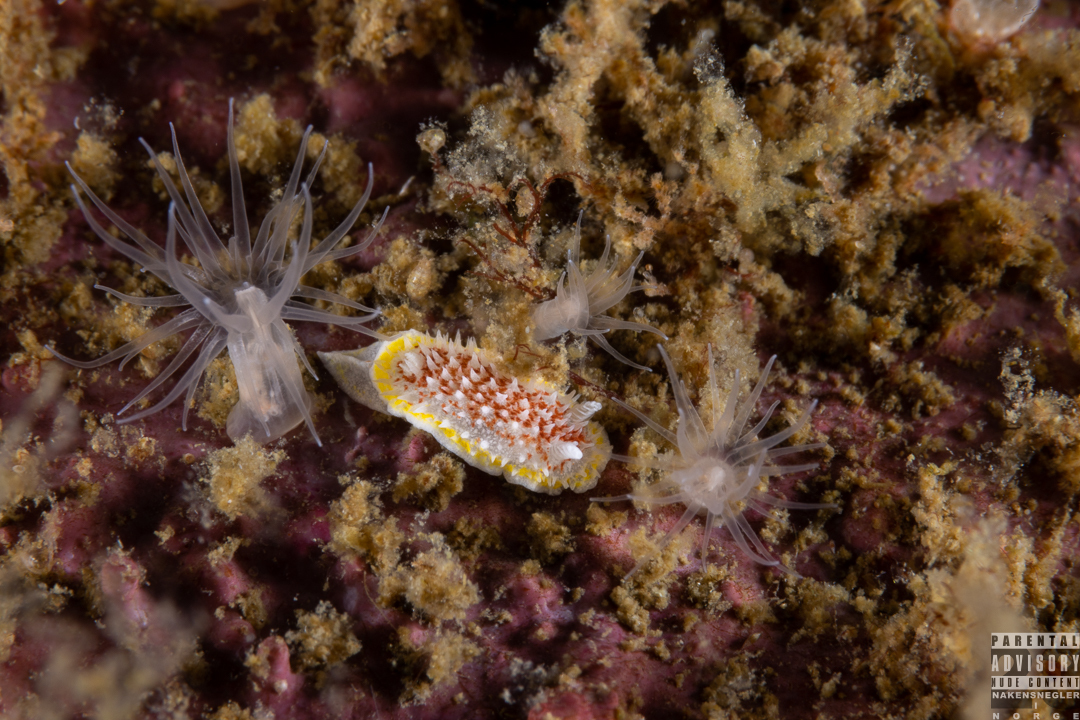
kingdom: Animalia
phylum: Mollusca
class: Gastropoda
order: Nudibranchia
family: Calycidorididae
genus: Diaphorodoris
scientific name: Diaphorodoris luteocincta
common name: Fried egg nudibranch
